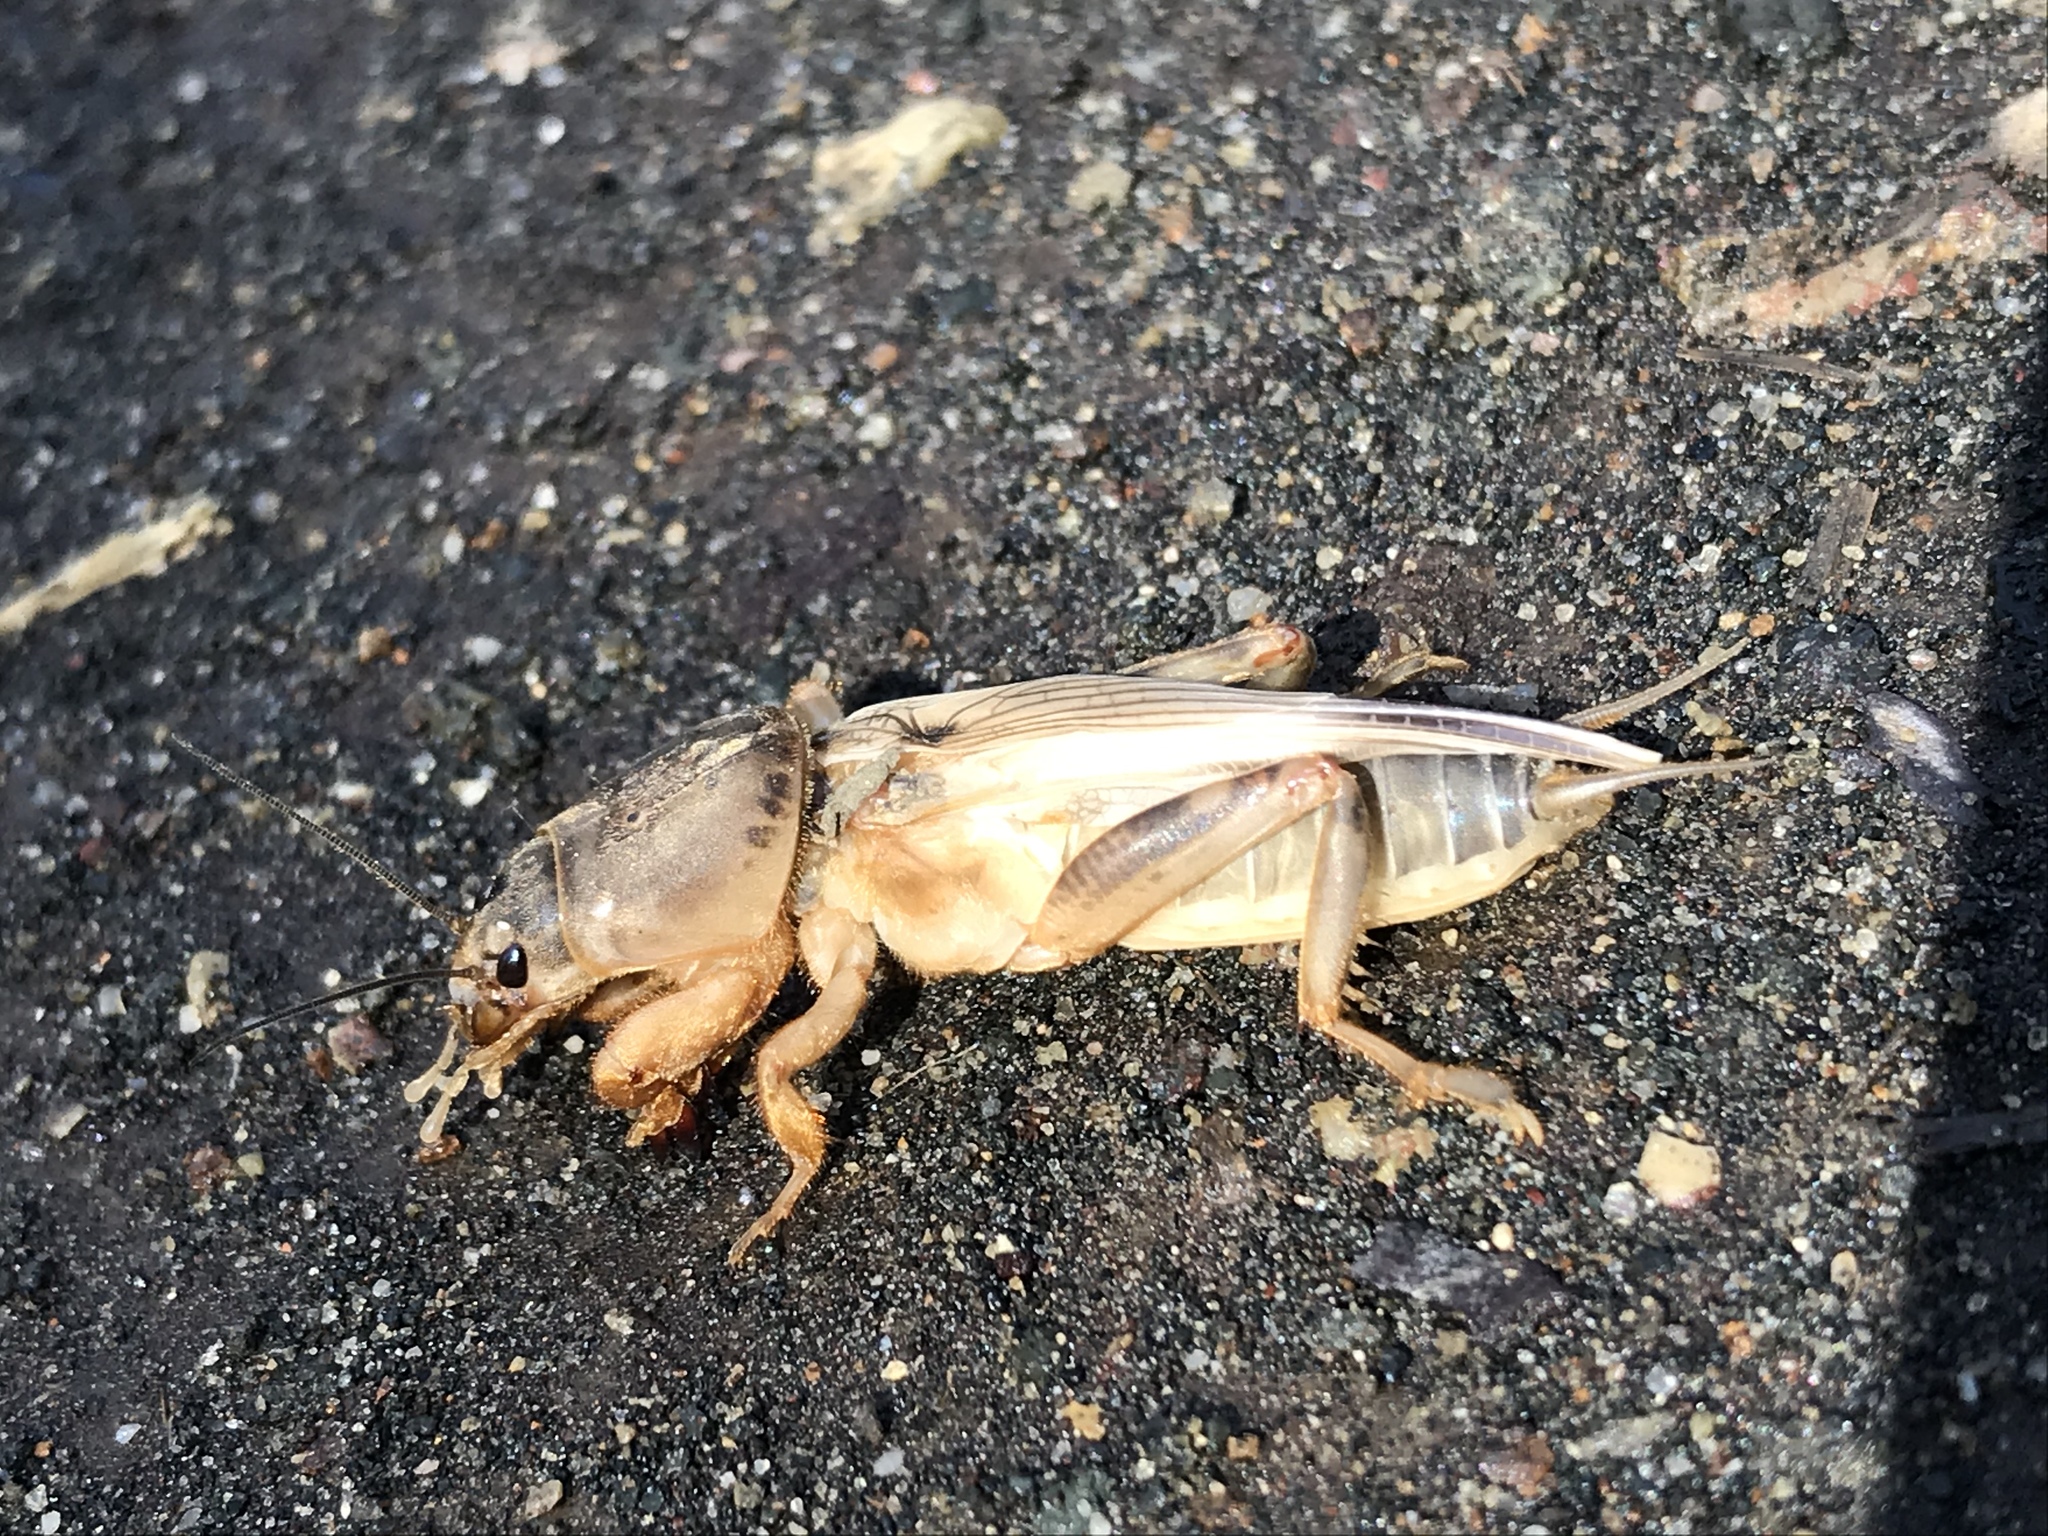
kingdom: Animalia
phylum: Arthropoda
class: Insecta
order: Orthoptera
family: Gryllotalpidae
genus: Neoscapteriscus
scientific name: Neoscapteriscus vicinus
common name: Tawny mole cricket
